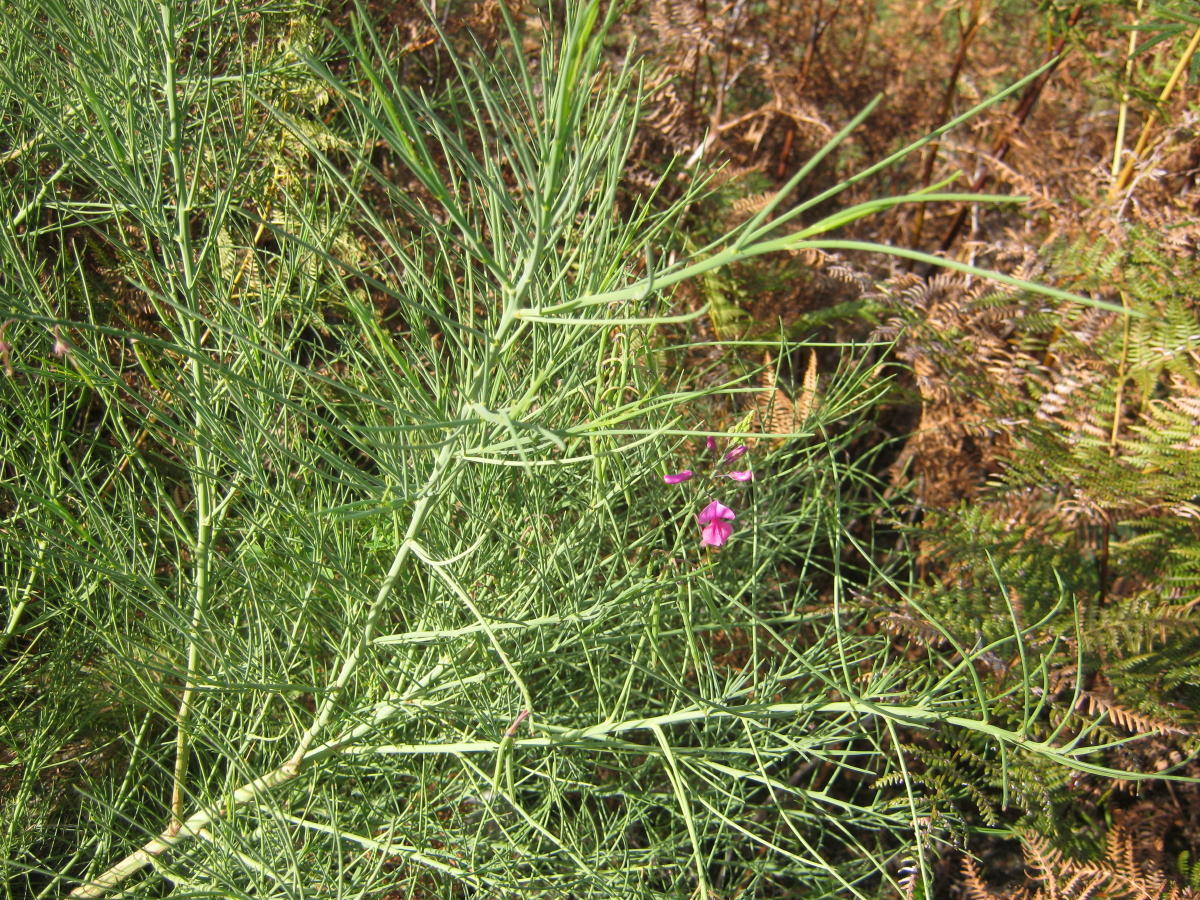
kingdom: Plantae
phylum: Tracheophyta
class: Magnoliopsida
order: Fabales
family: Fabaceae
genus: Indigofera
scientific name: Indigofera filifolia
